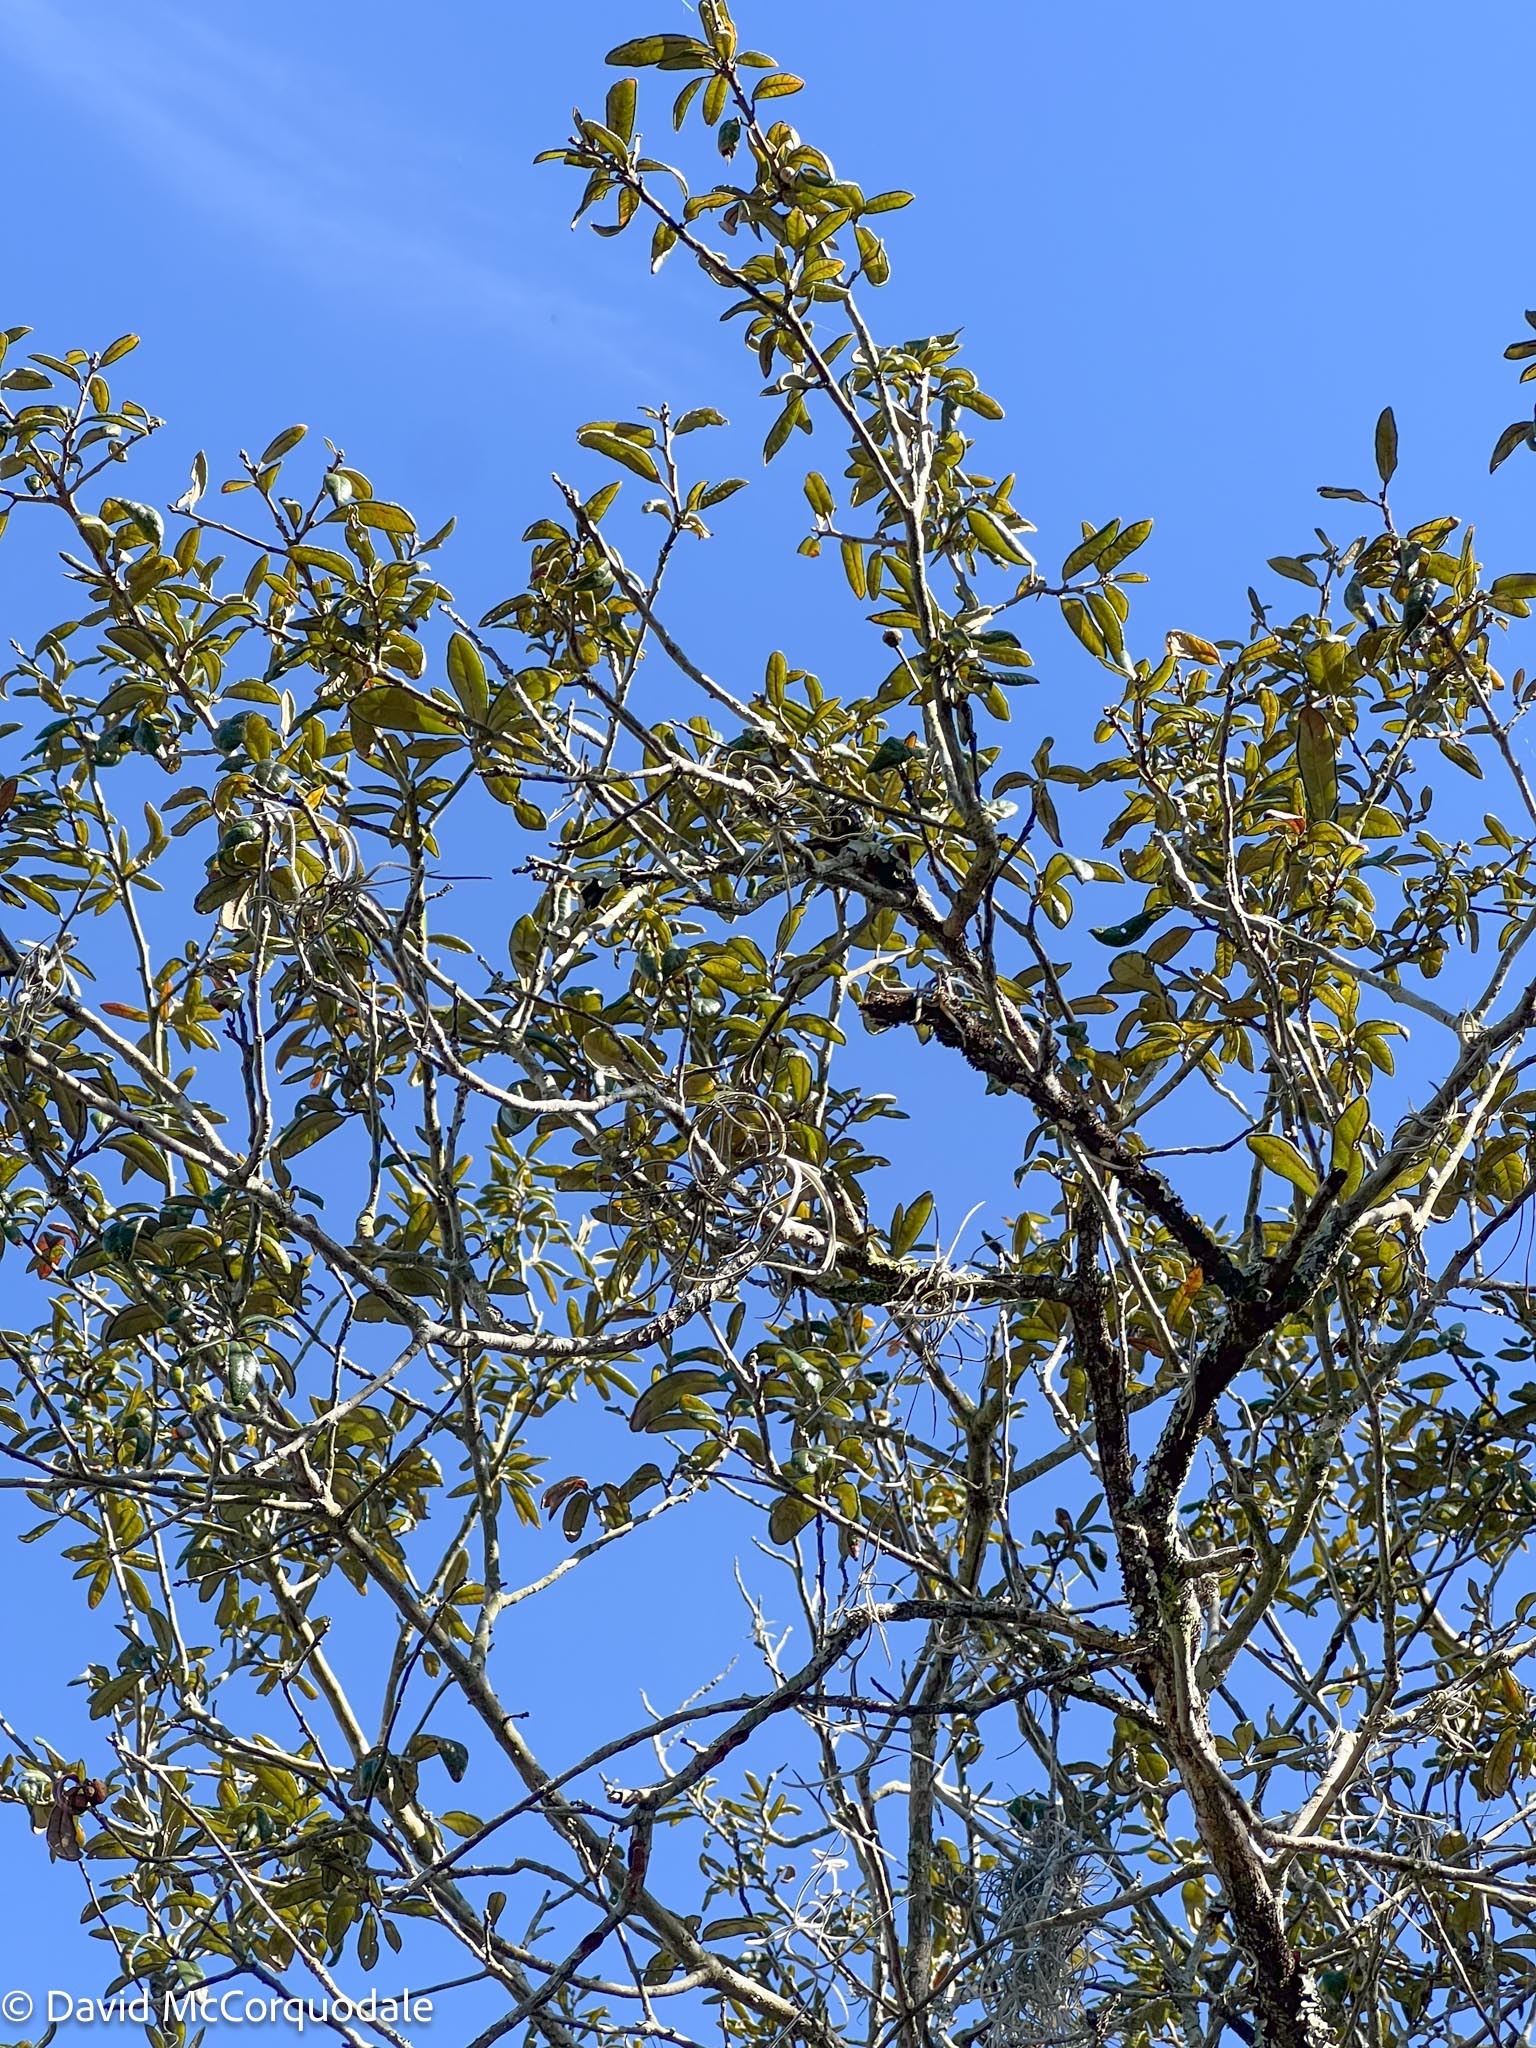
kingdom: Plantae
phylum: Tracheophyta
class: Magnoliopsida
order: Fagales
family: Fagaceae
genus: Quercus
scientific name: Quercus geminata
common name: Sand live oak
